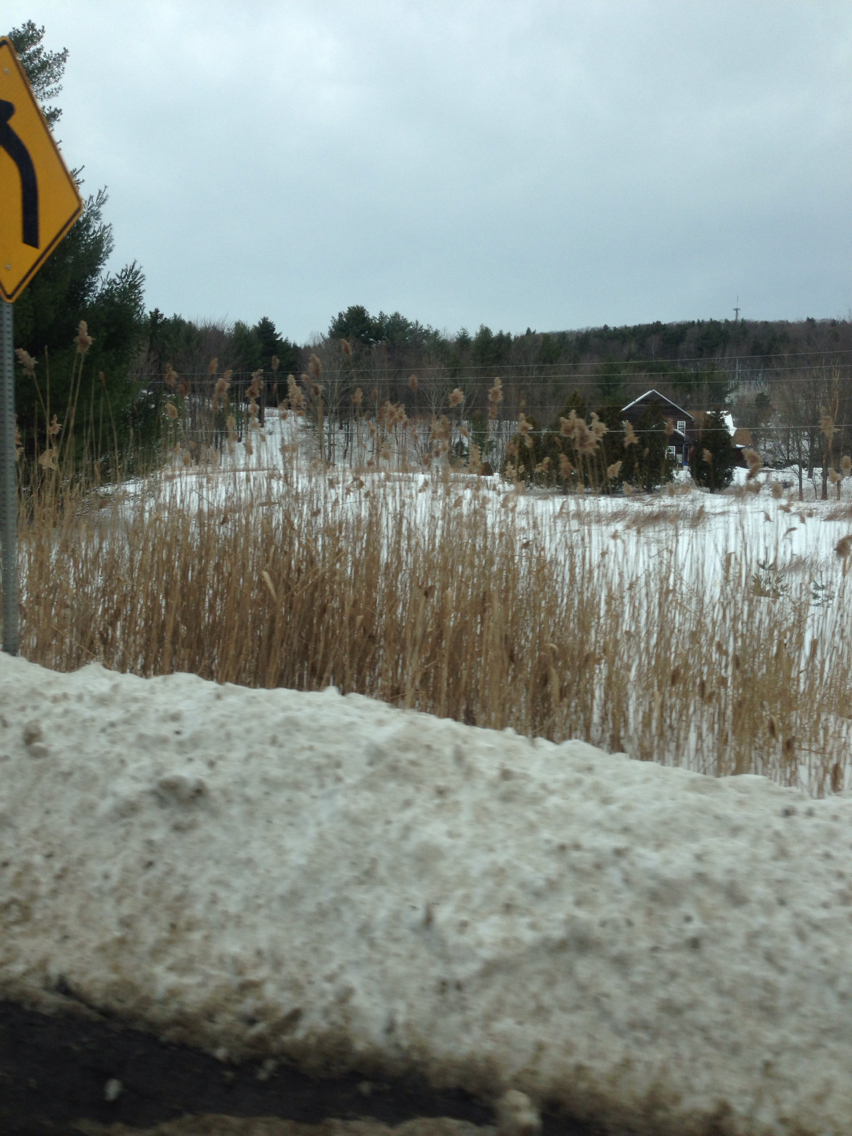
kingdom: Plantae
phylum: Tracheophyta
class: Liliopsida
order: Poales
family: Poaceae
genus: Phragmites
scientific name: Phragmites australis
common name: Common reed
